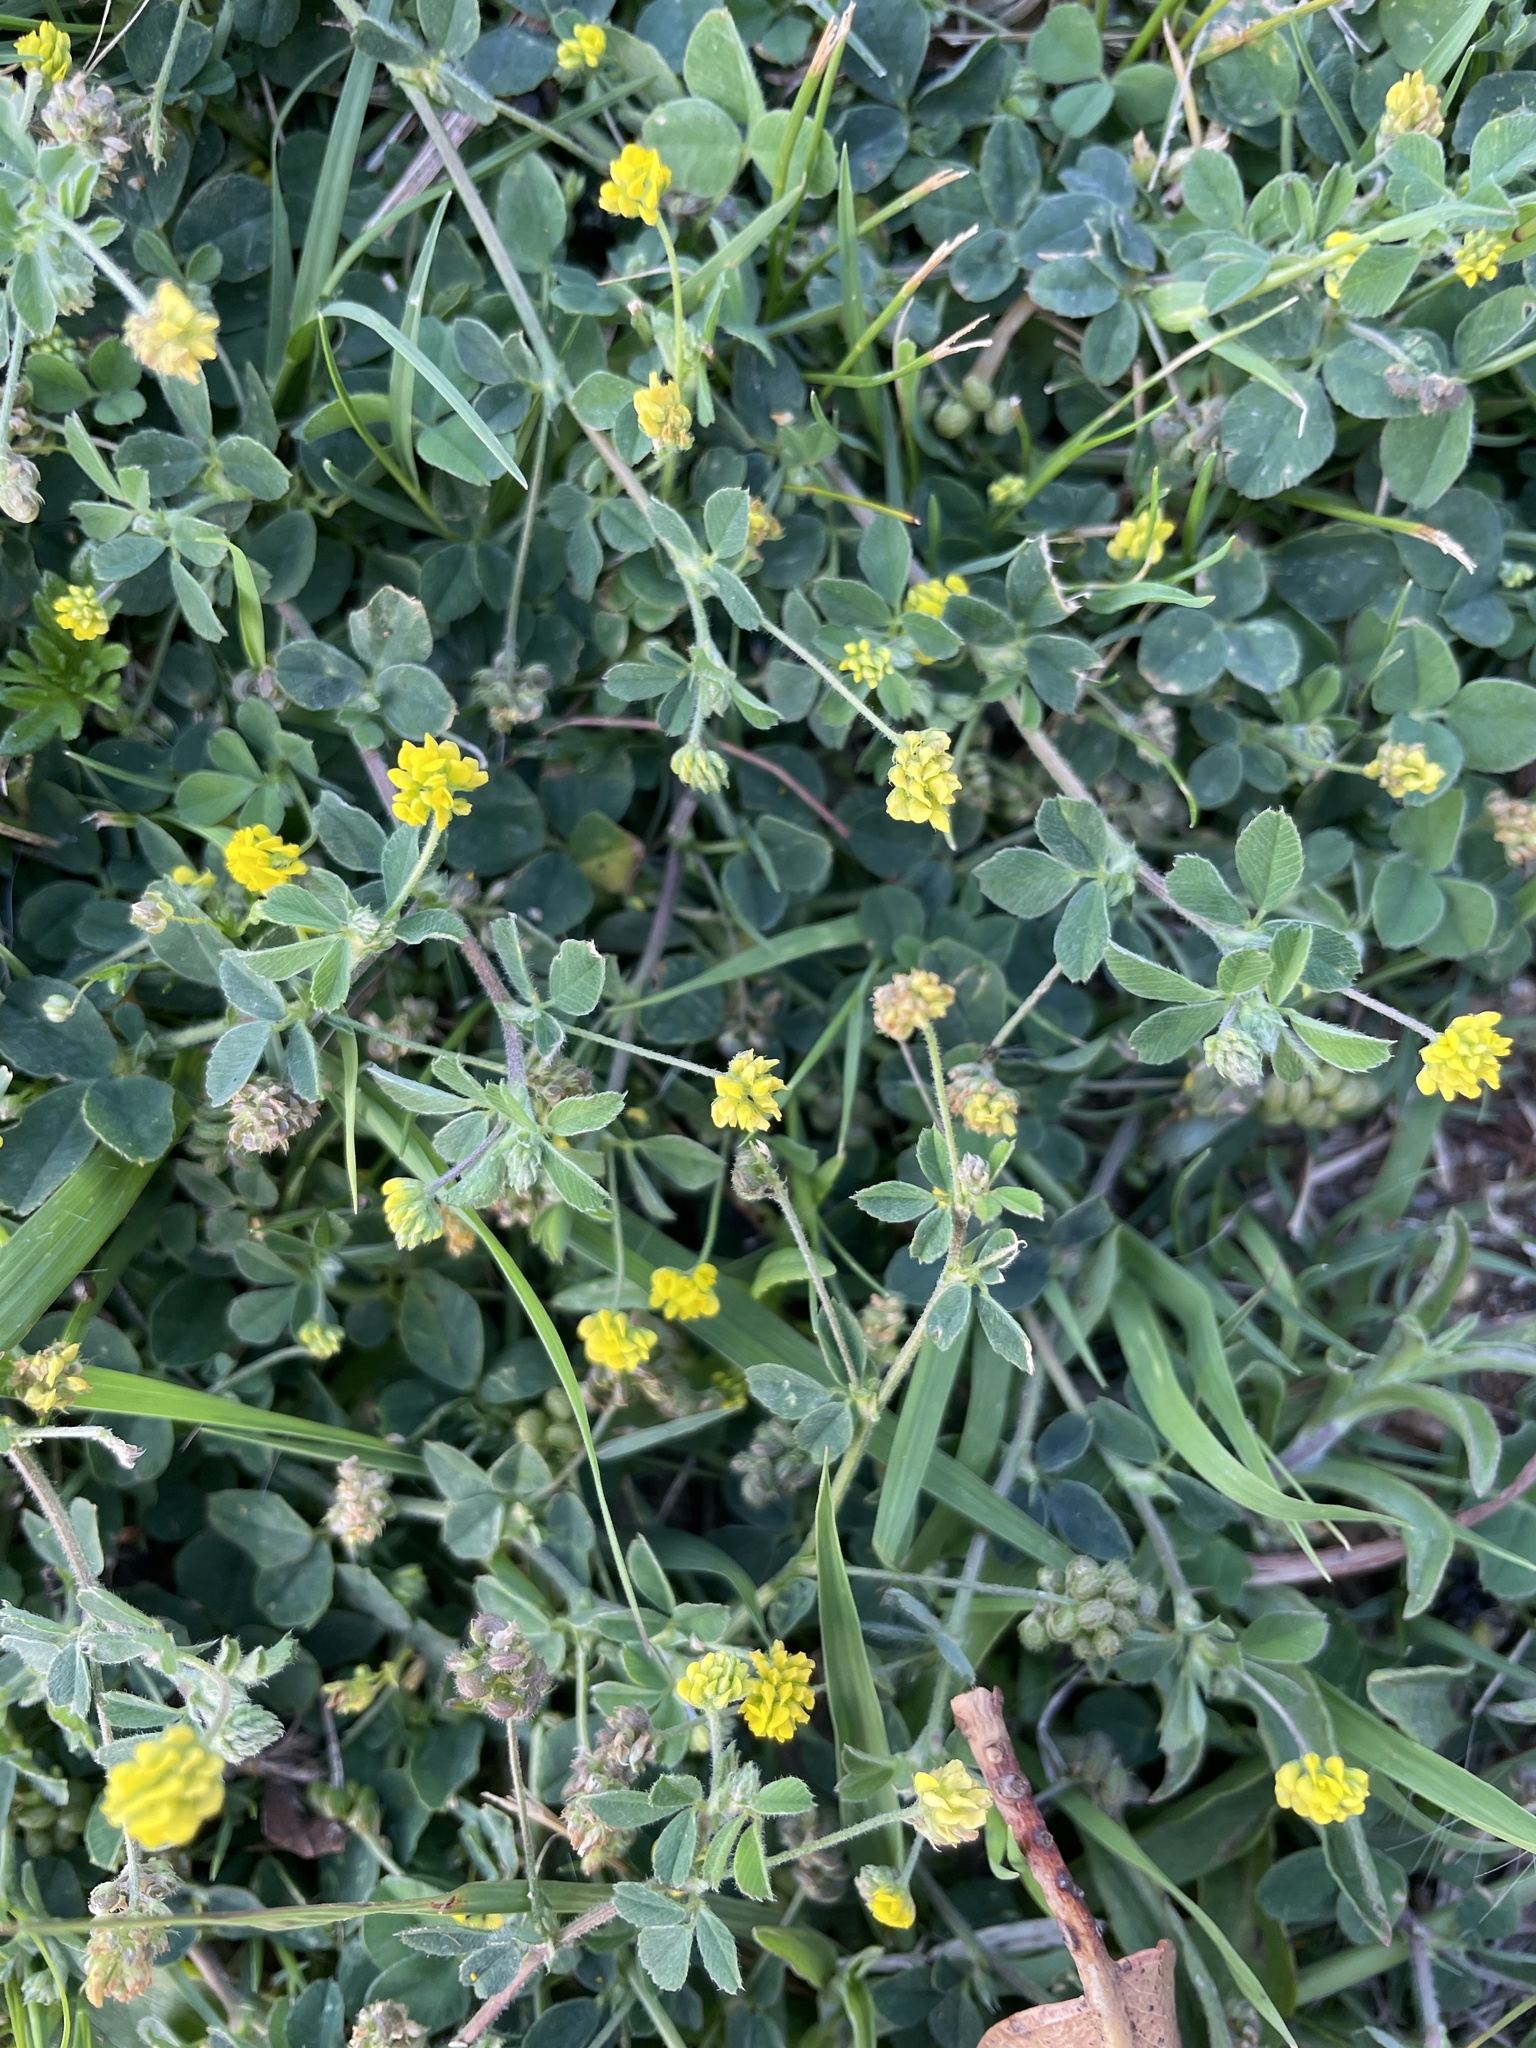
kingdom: Plantae
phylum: Tracheophyta
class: Magnoliopsida
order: Fabales
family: Fabaceae
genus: Medicago
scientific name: Medicago lupulina
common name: Black medick
